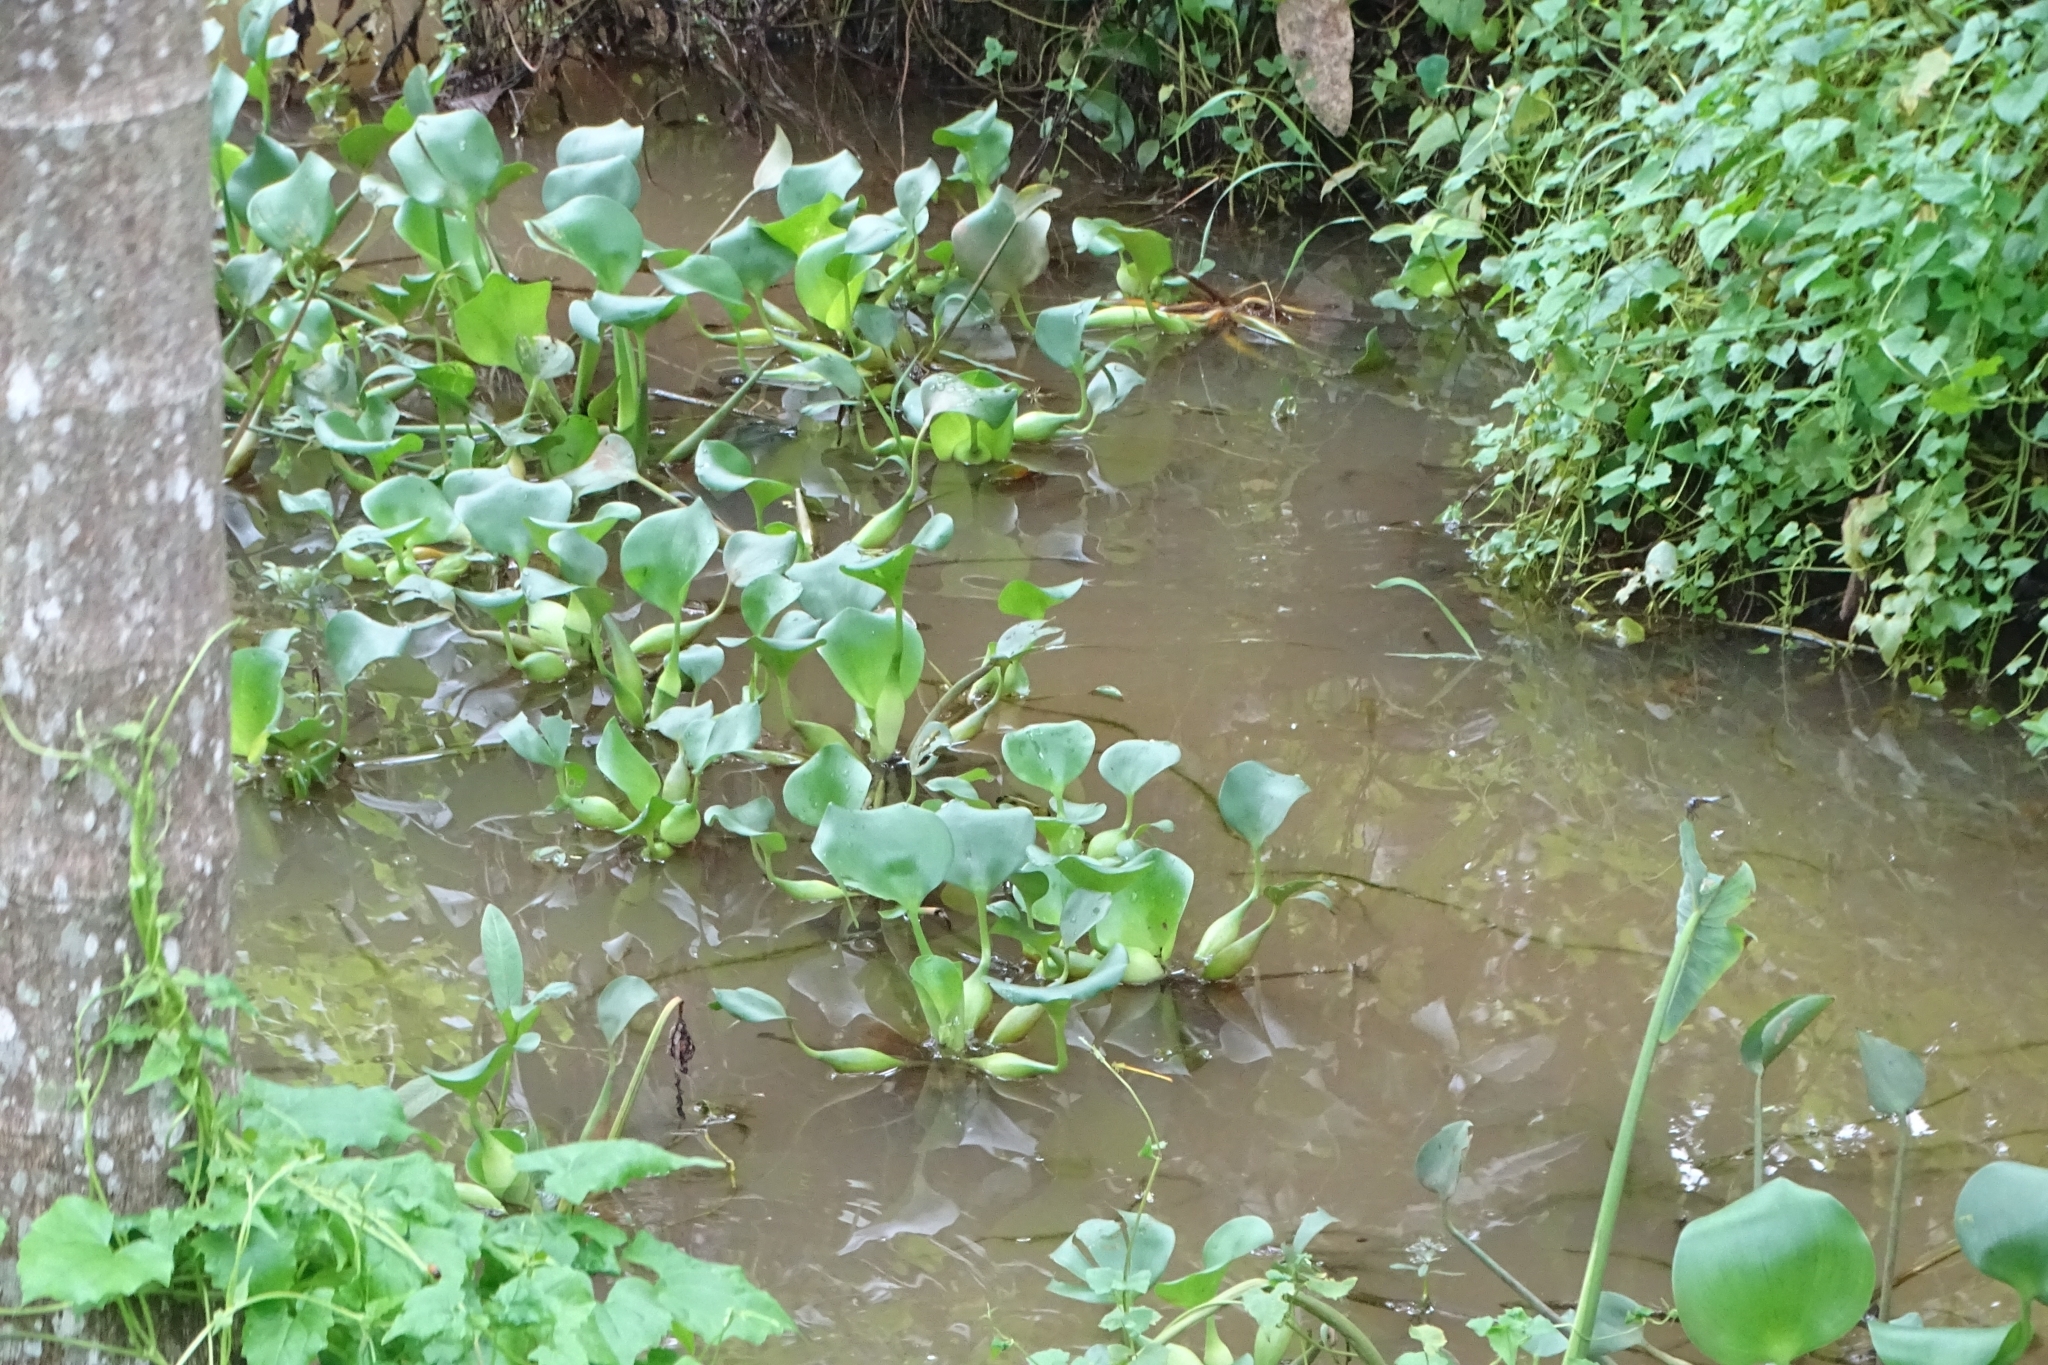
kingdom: Plantae
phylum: Tracheophyta
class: Liliopsida
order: Commelinales
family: Pontederiaceae
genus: Pontederia
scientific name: Pontederia crassipes
